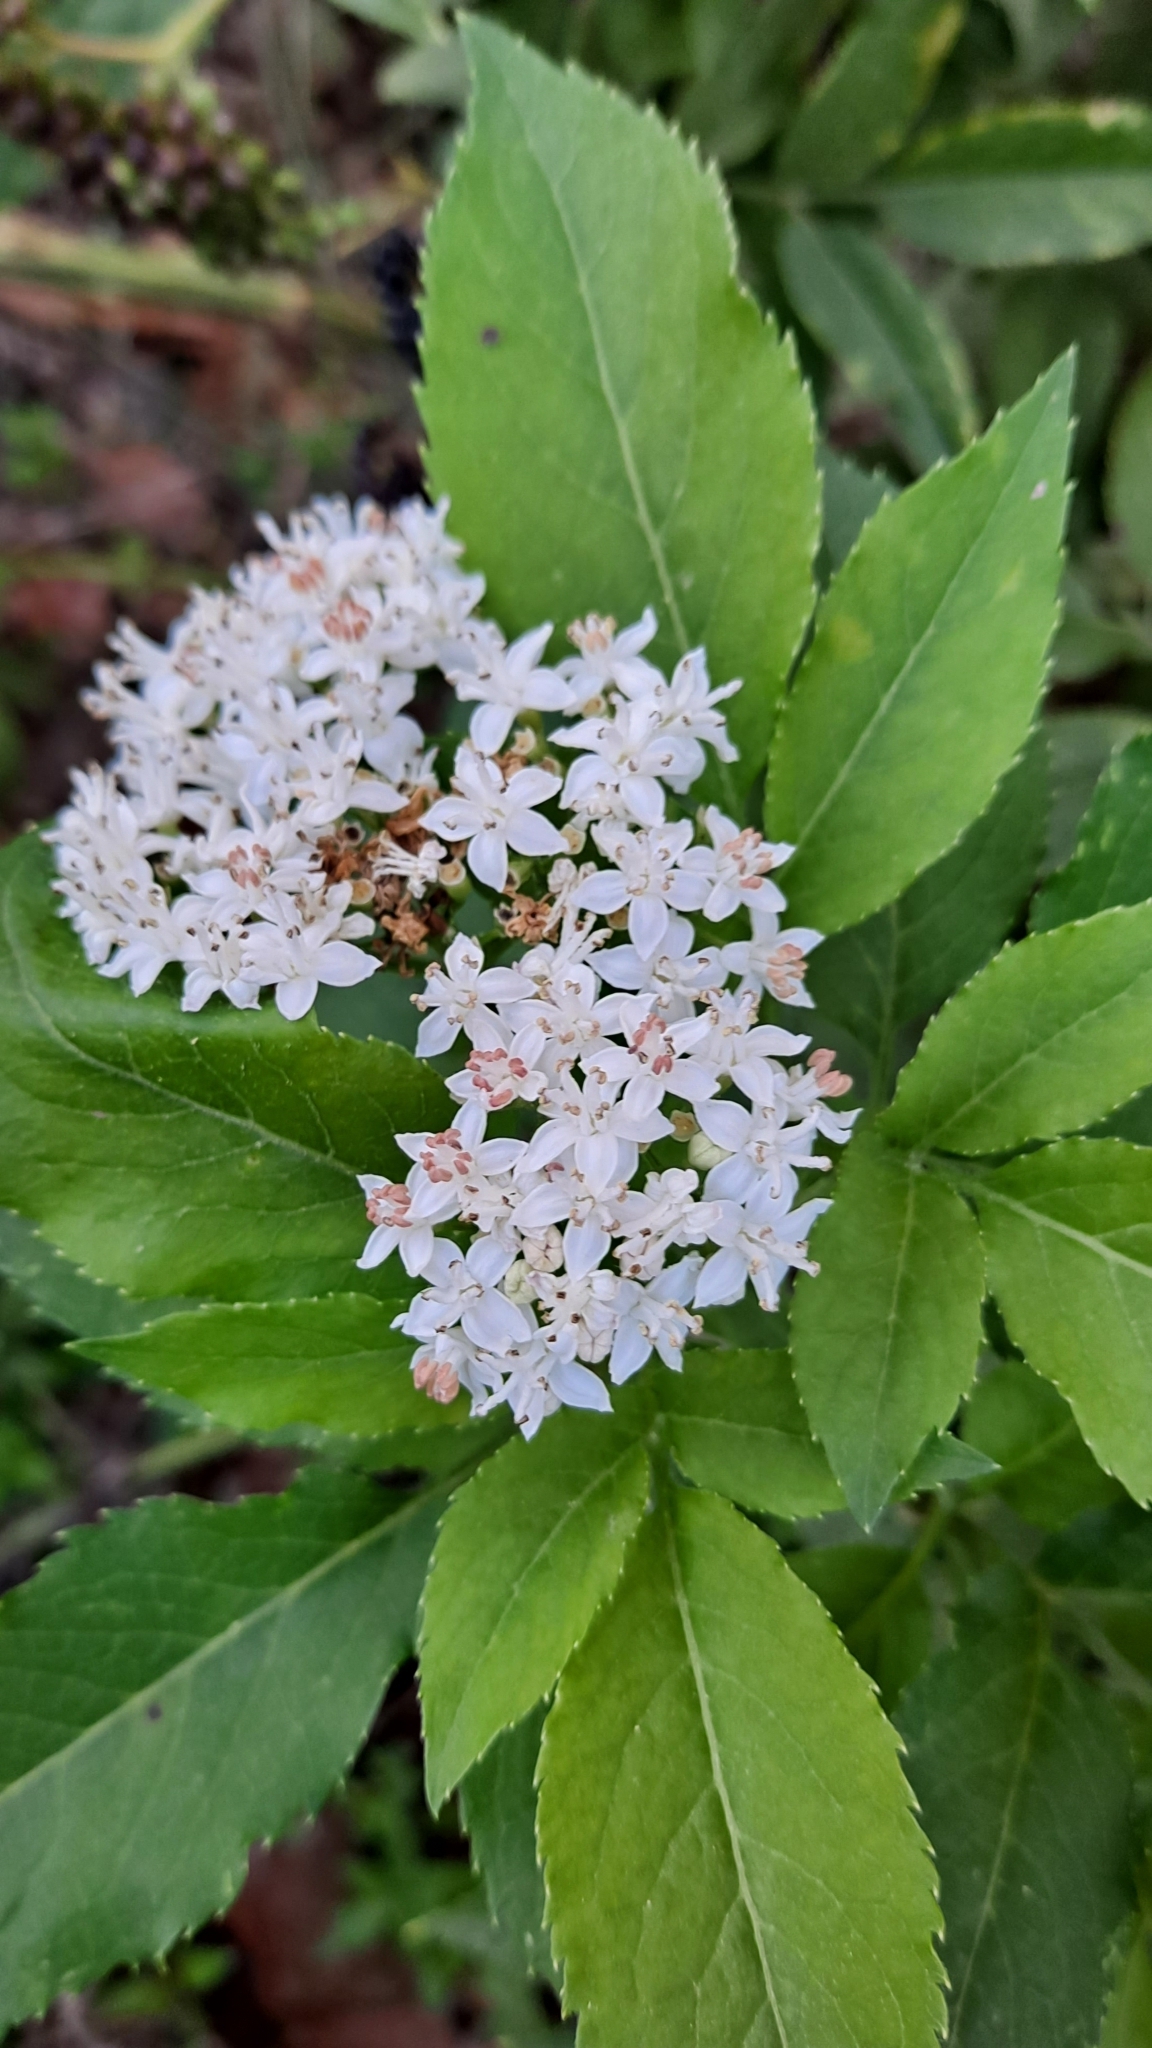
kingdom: Plantae
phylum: Tracheophyta
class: Magnoliopsida
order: Dipsacales
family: Viburnaceae
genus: Sambucus
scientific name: Sambucus ebulus
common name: Dwarf elder
